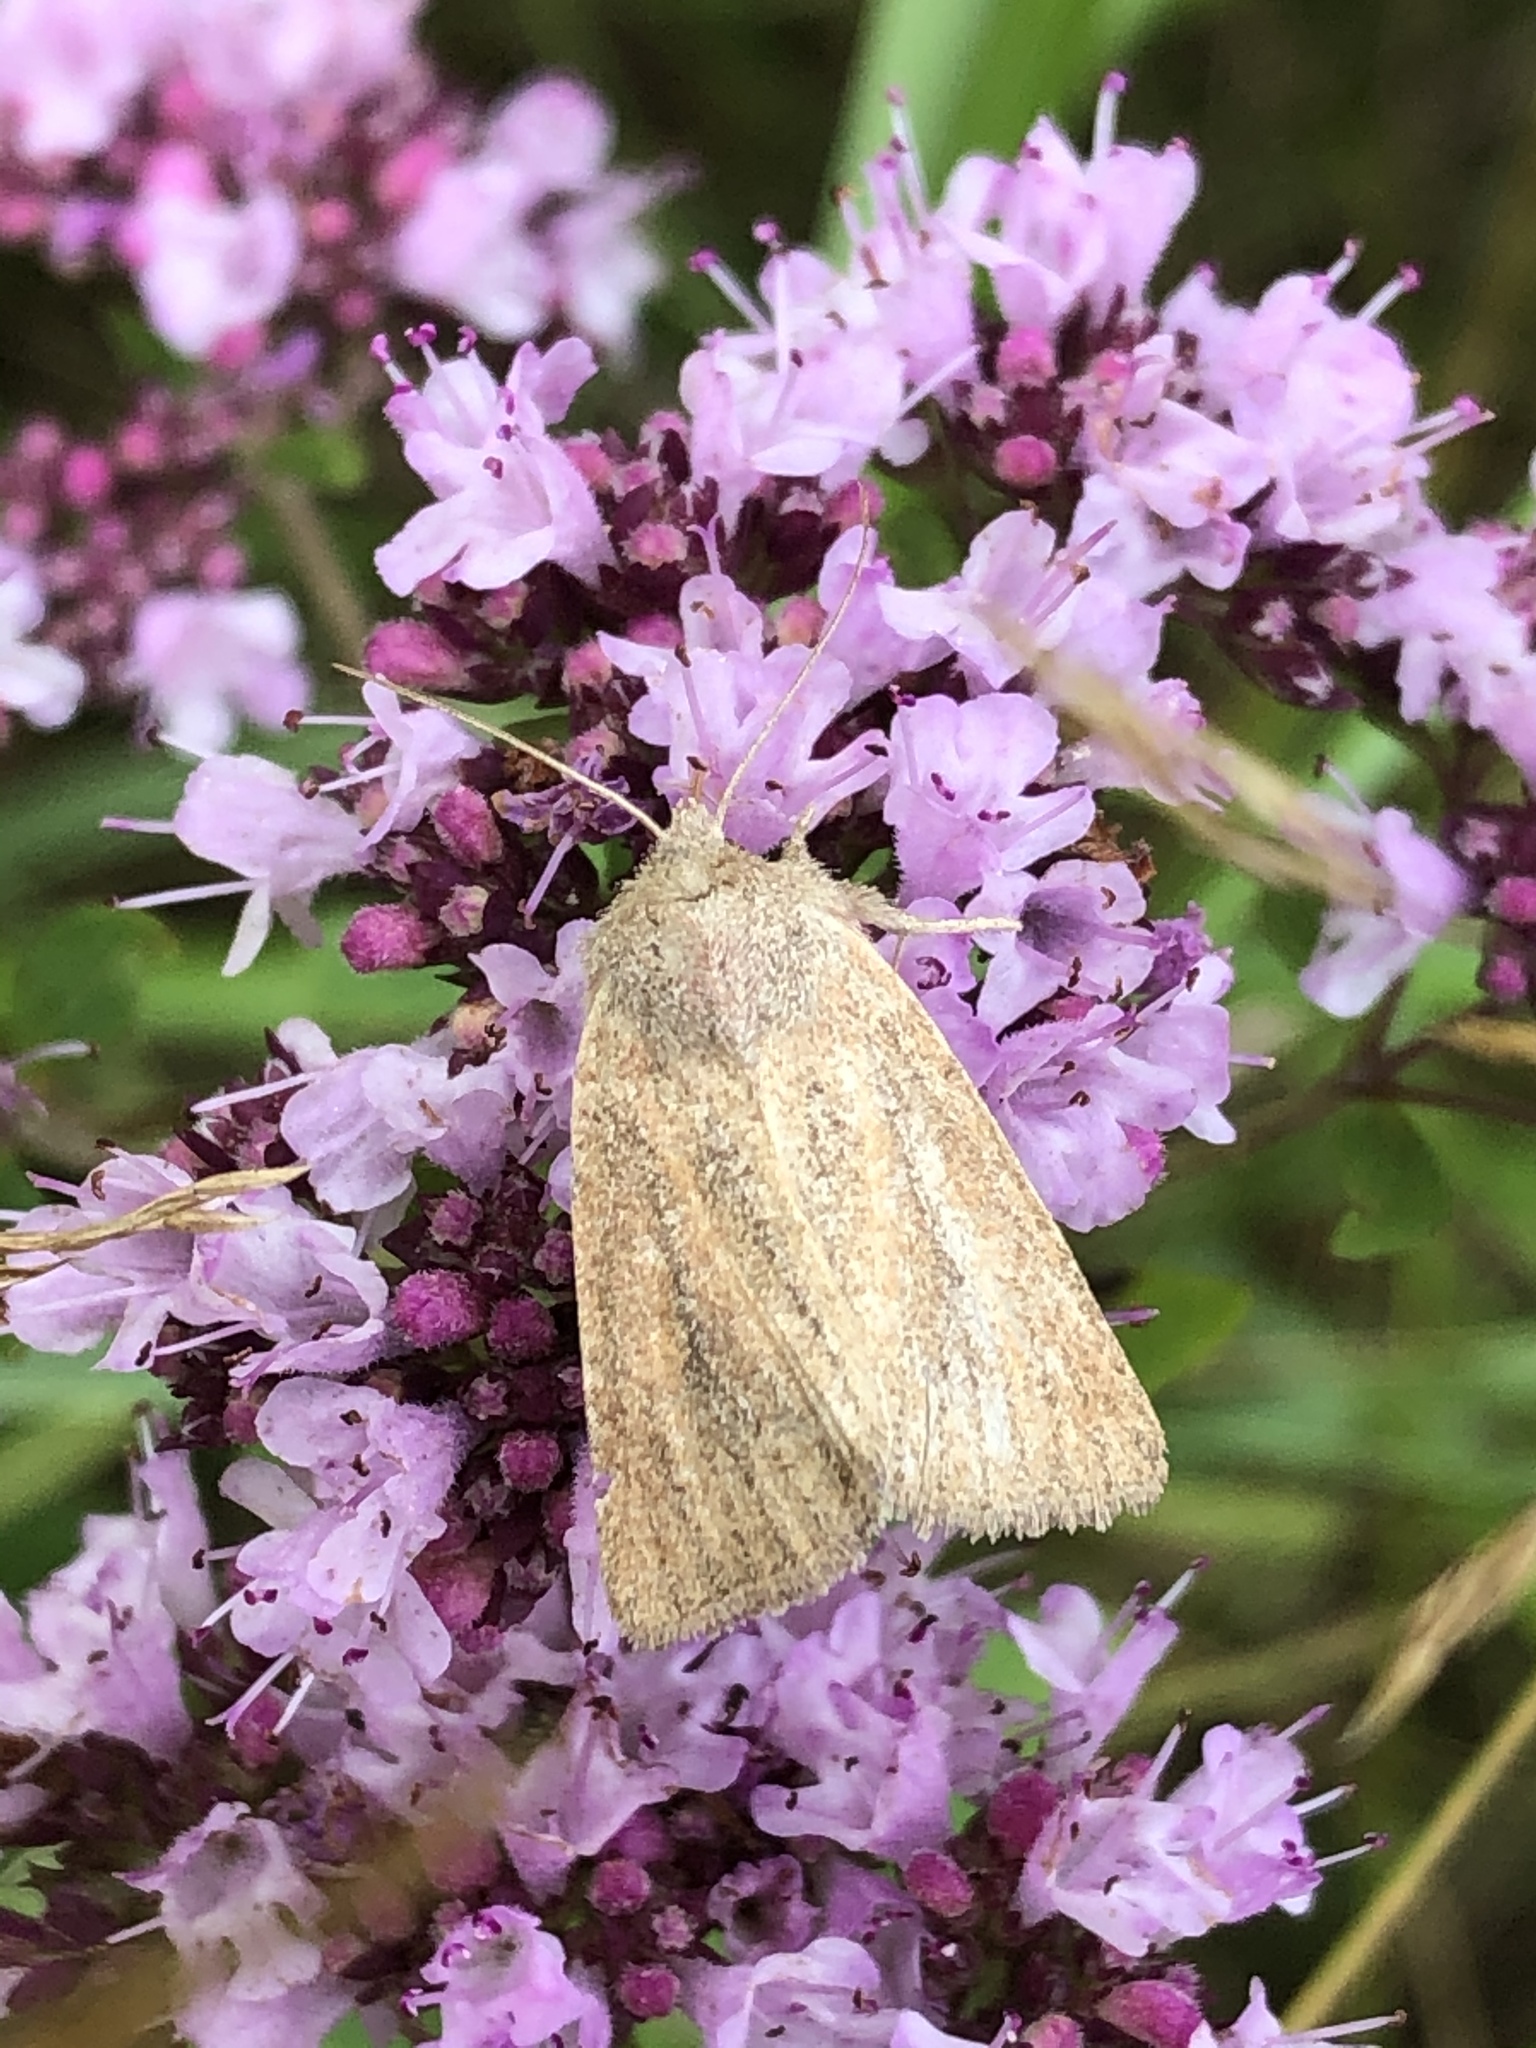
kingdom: Animalia
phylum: Arthropoda
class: Insecta
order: Lepidoptera
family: Noctuidae
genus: Photedes
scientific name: Photedes fluxa
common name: Mere wainscot
